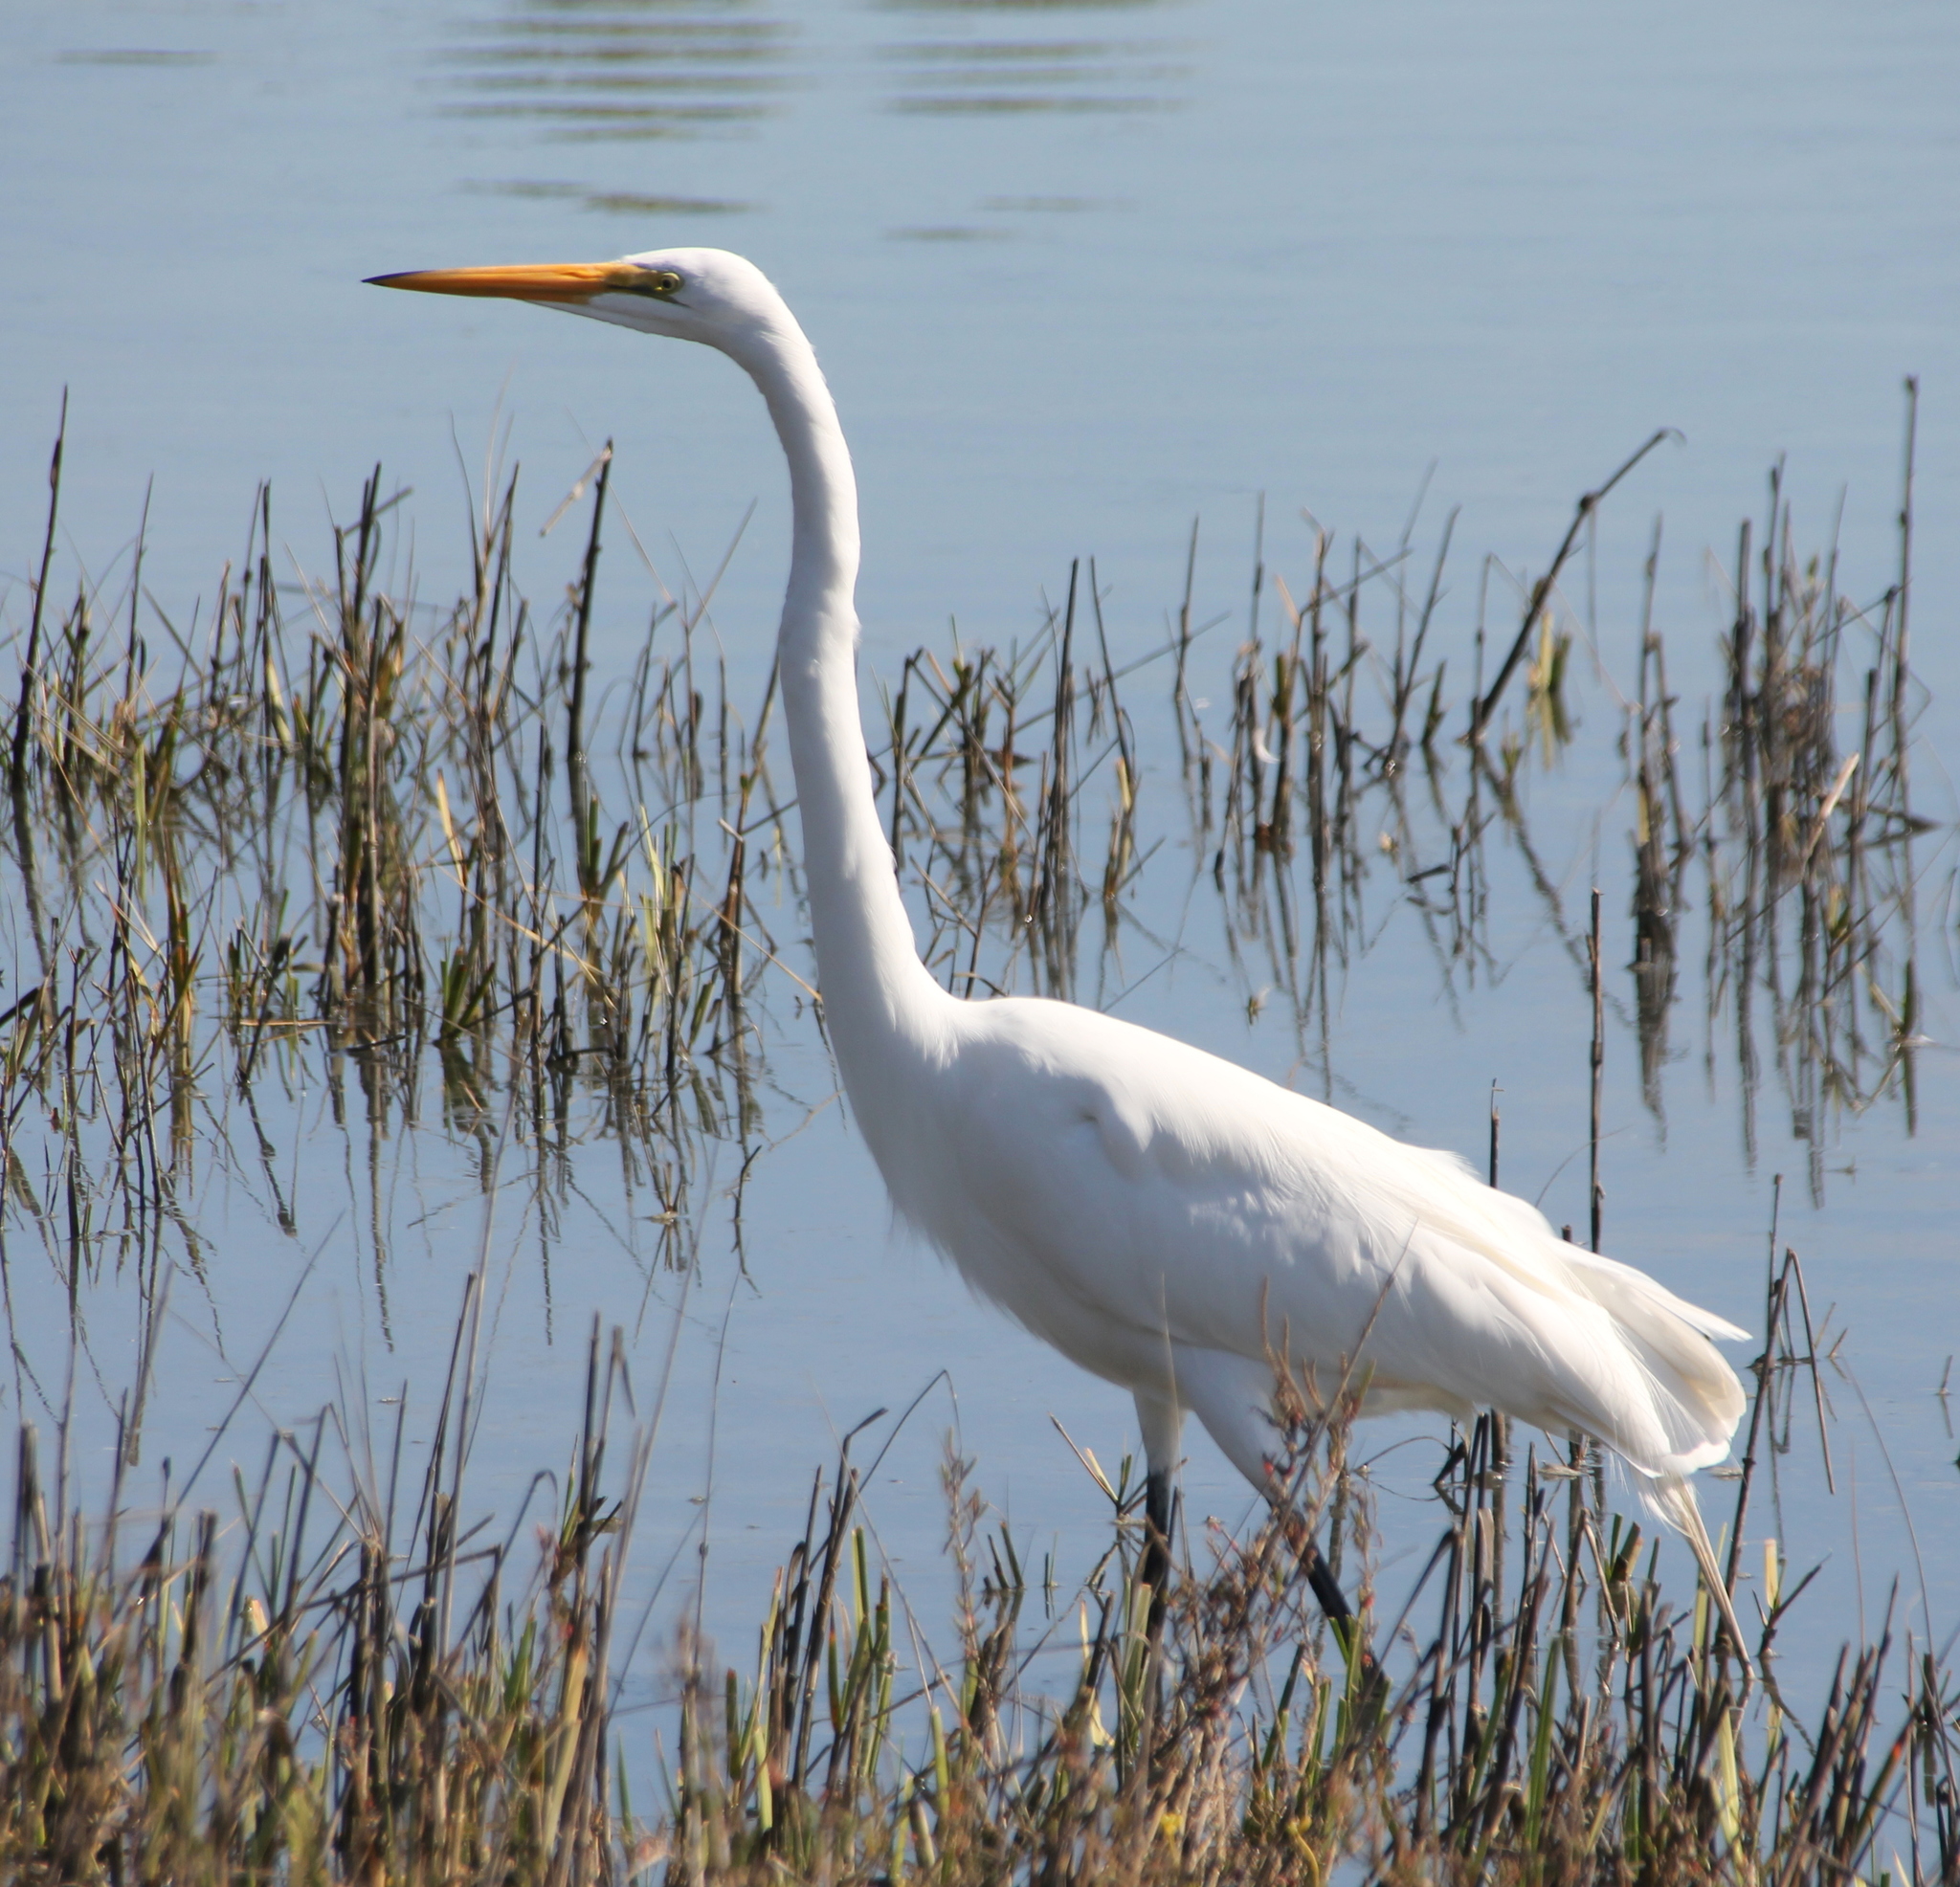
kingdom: Animalia
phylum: Chordata
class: Aves
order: Pelecaniformes
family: Ardeidae
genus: Ardea
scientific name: Ardea alba
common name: Great egret
